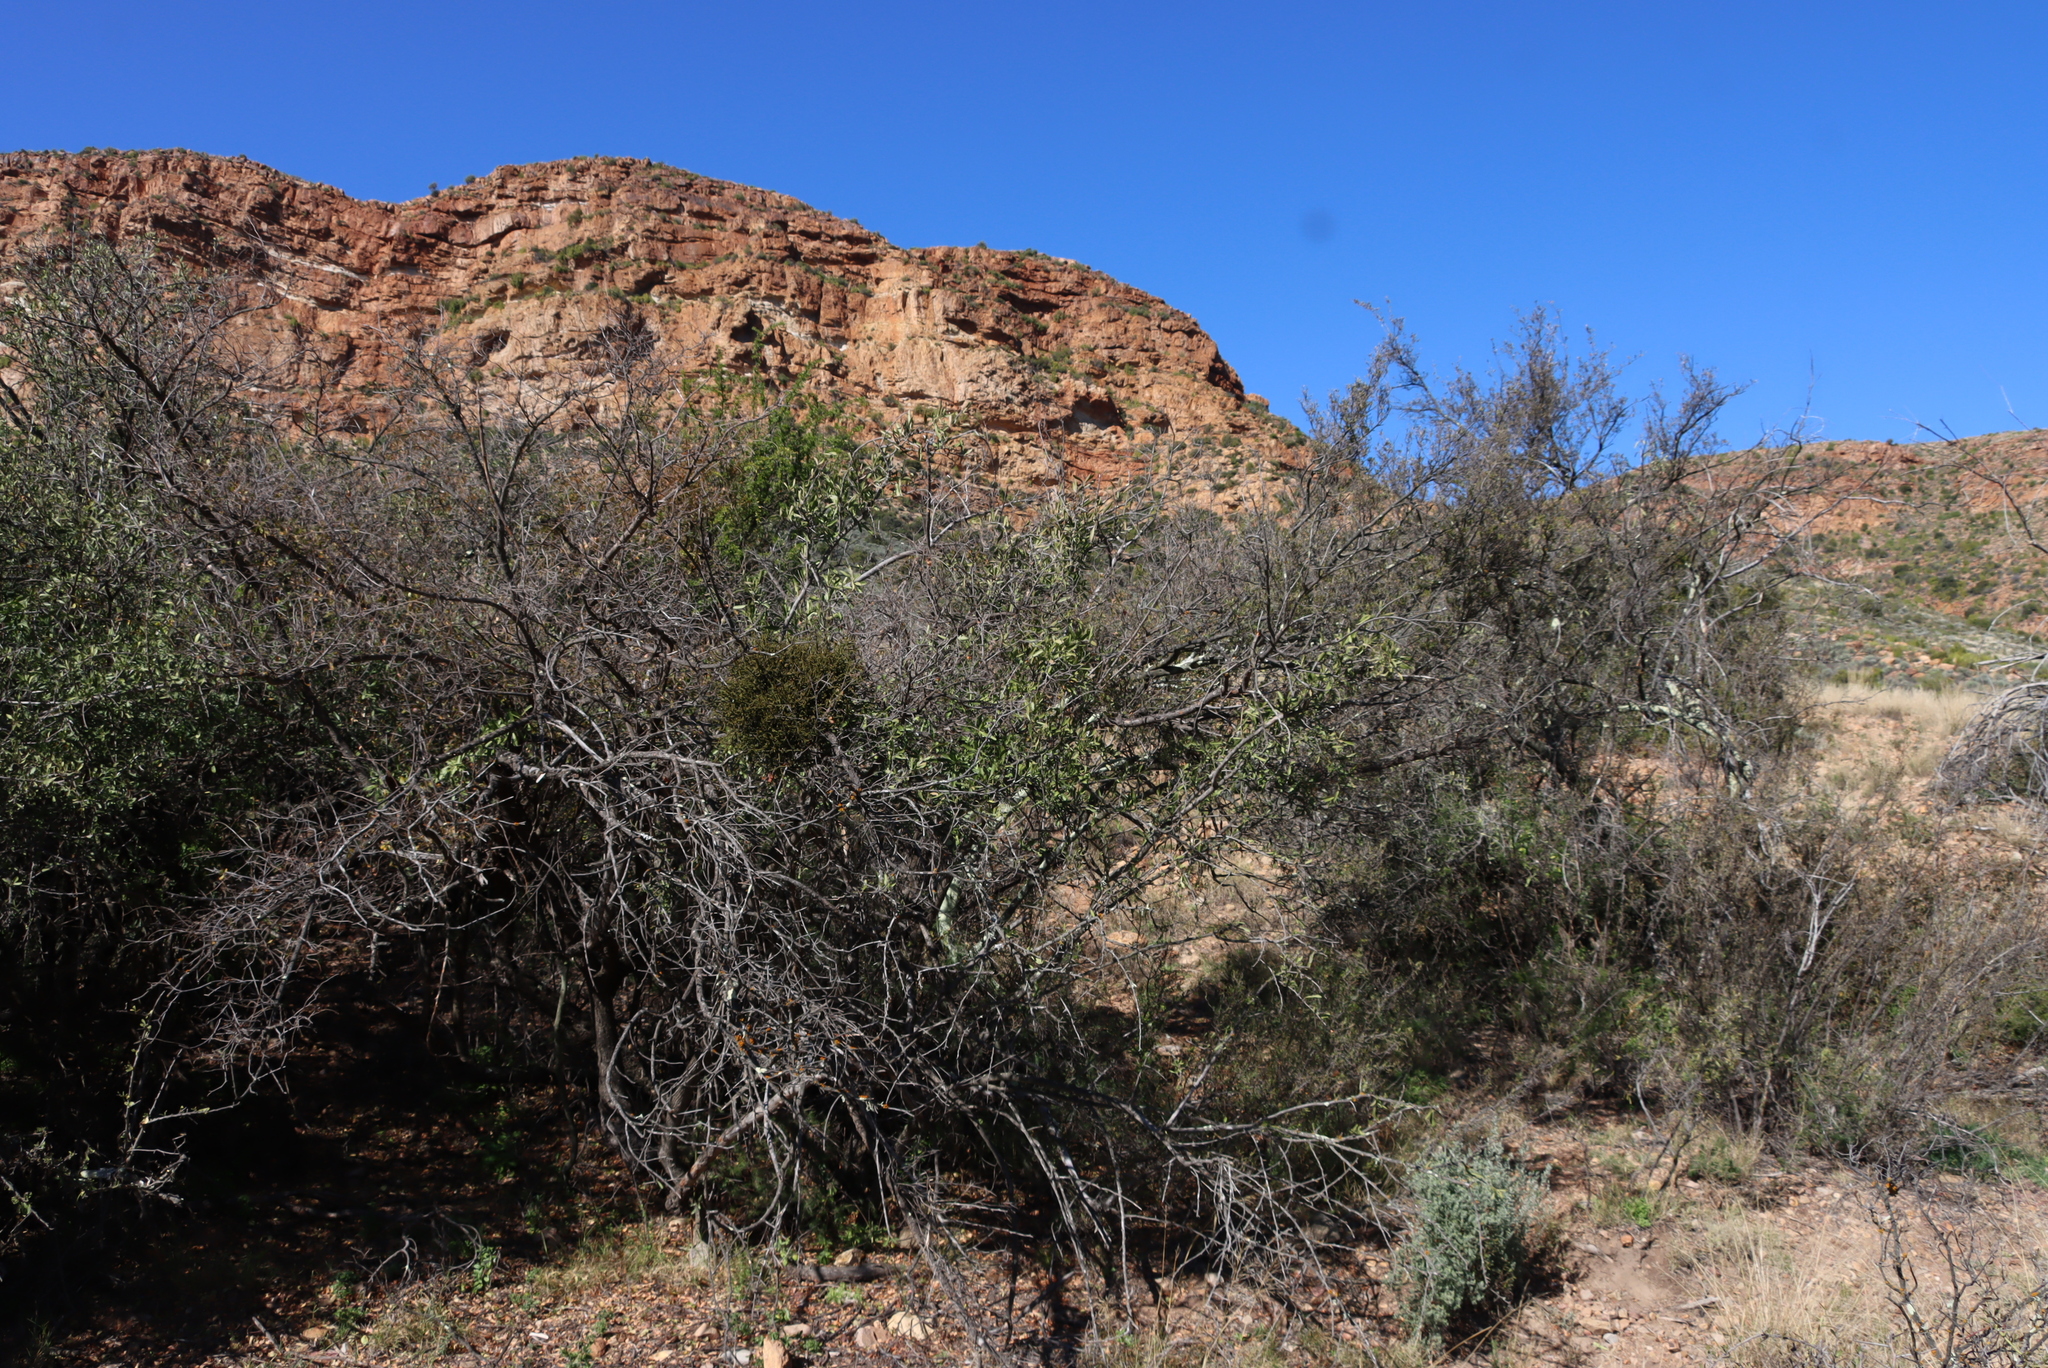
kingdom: Plantae
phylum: Tracheophyta
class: Magnoliopsida
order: Santalales
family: Viscaceae
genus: Viscum
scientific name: Viscum capense
